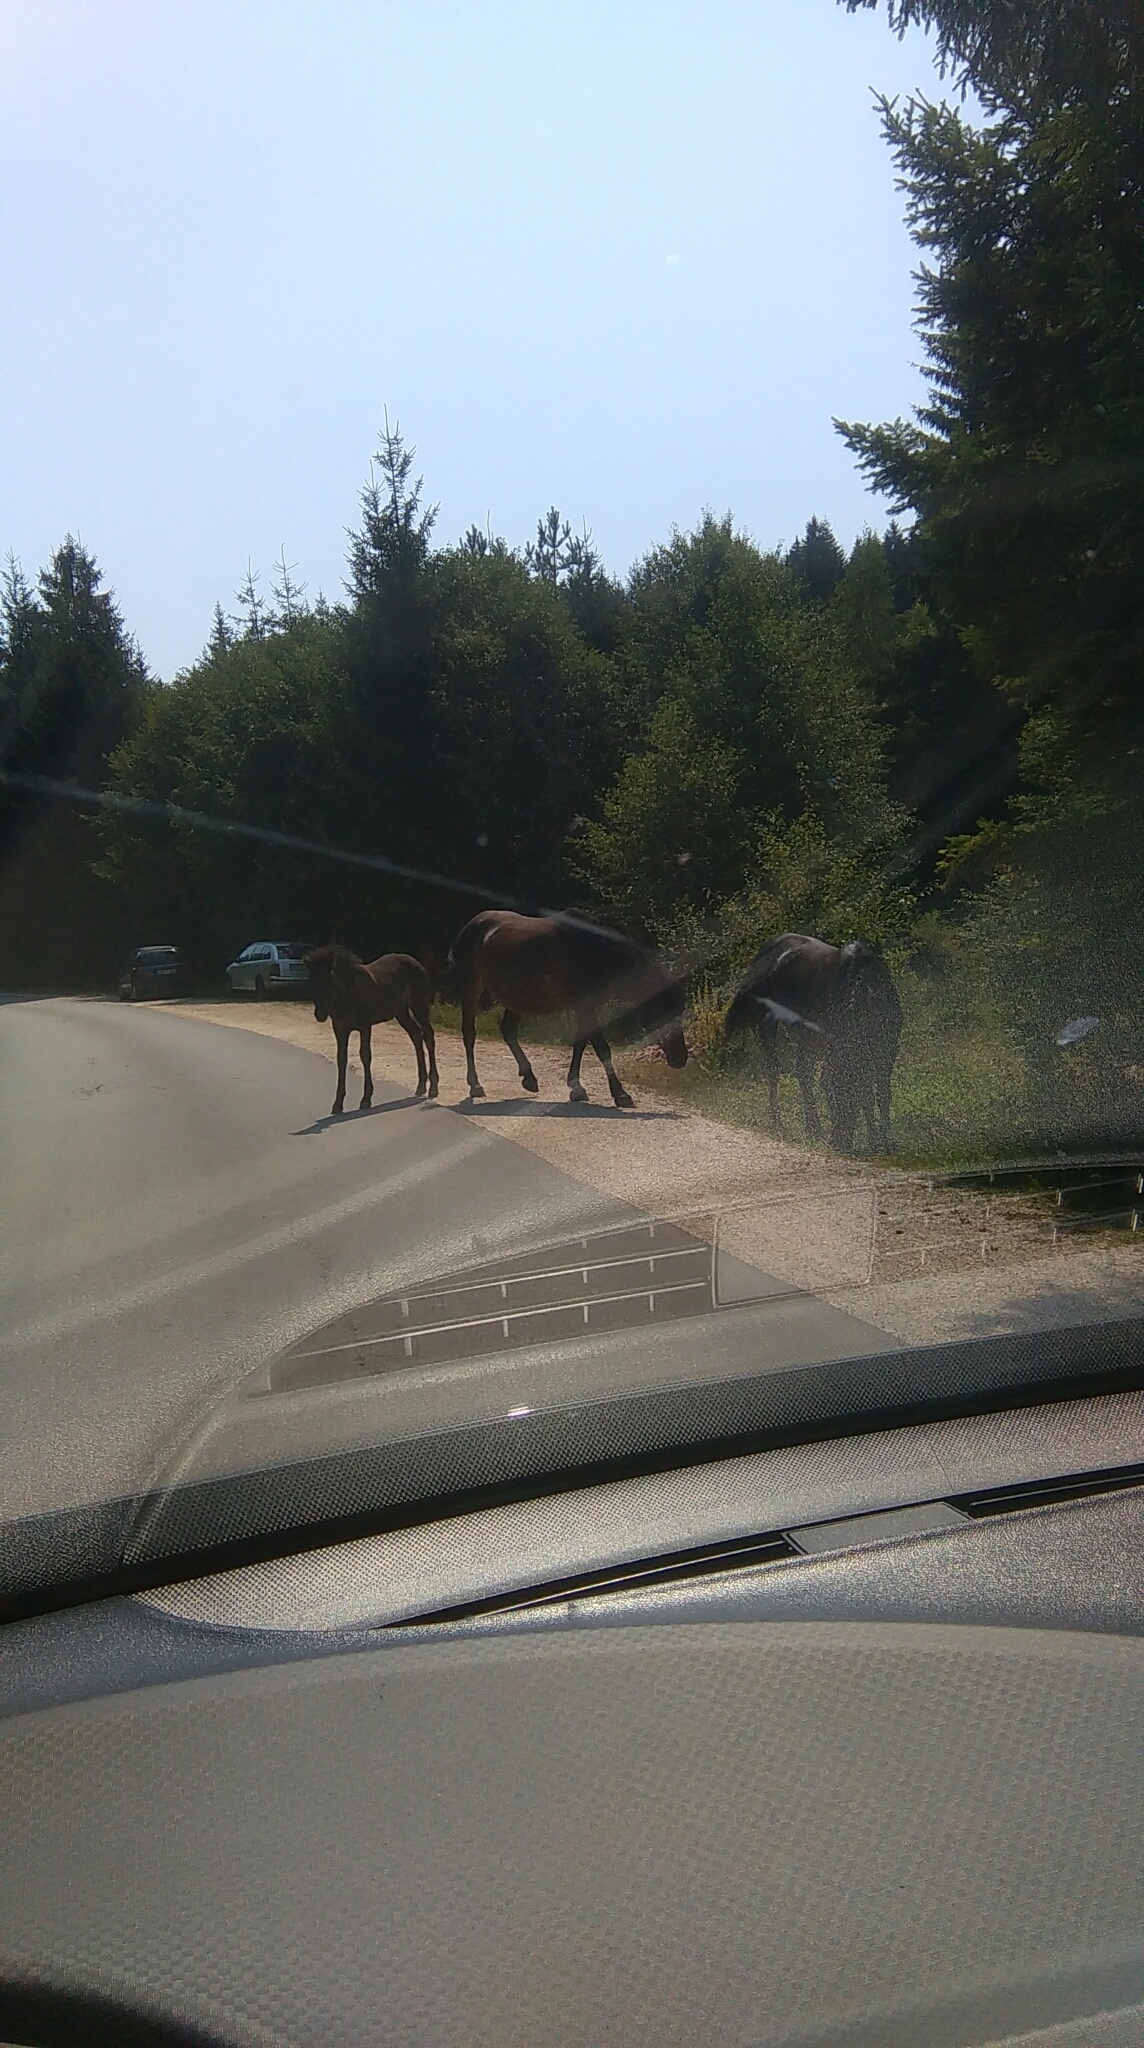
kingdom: Animalia
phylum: Chordata
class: Mammalia
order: Perissodactyla
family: Equidae
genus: Equus
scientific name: Equus caballus
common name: Horse
